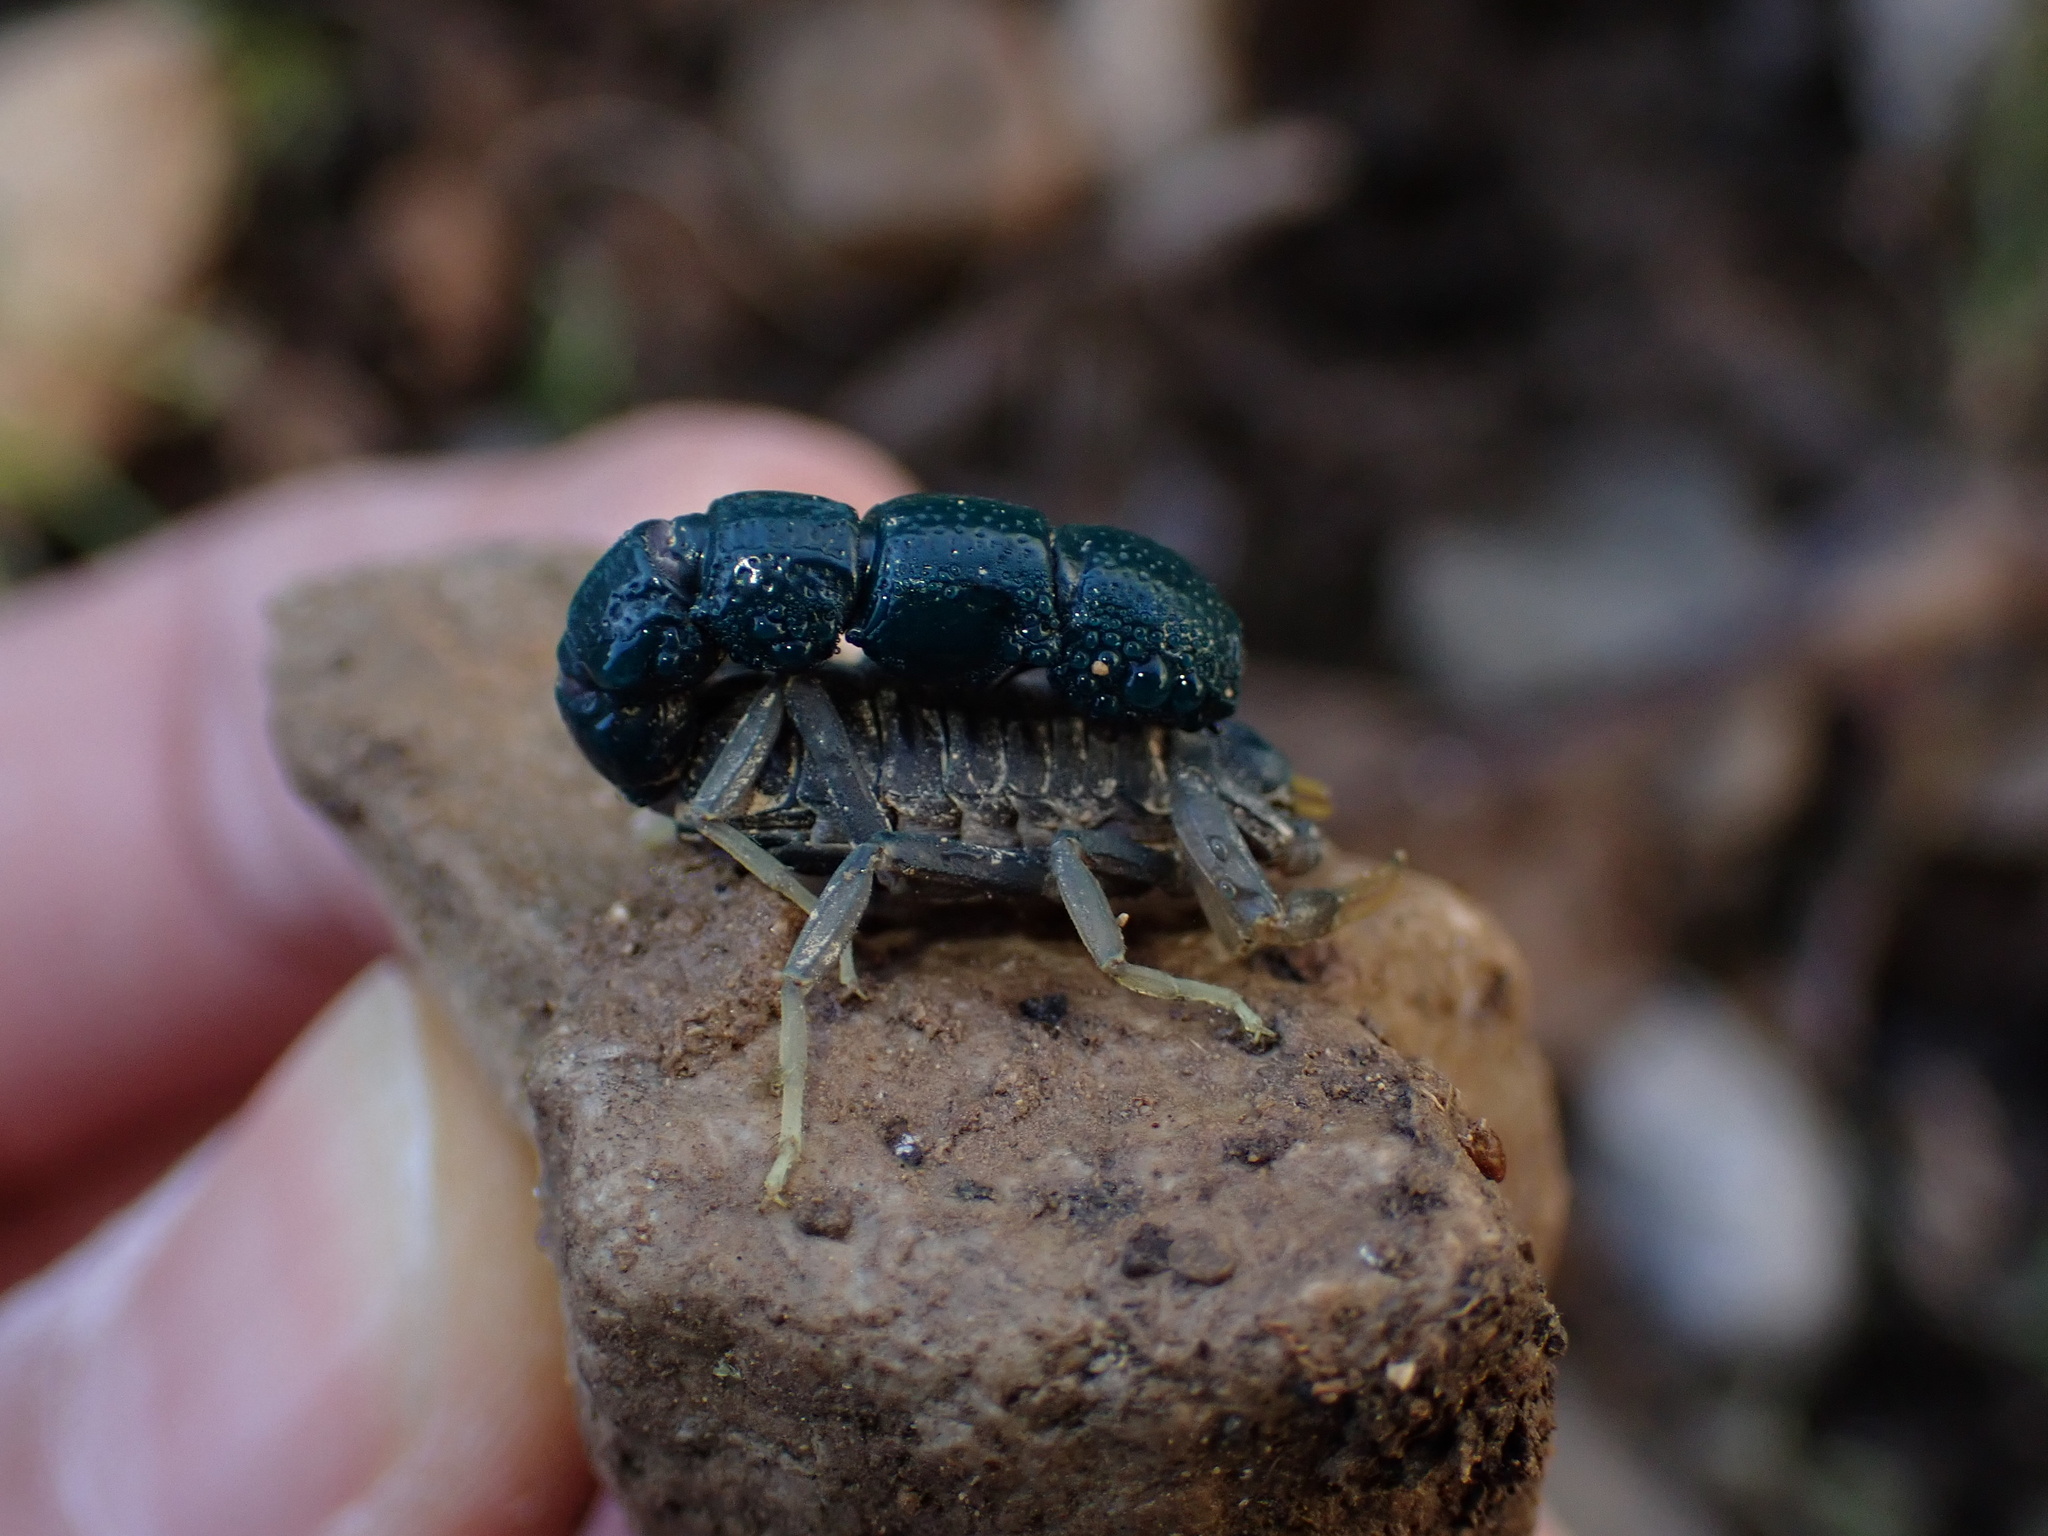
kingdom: Animalia
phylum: Arthropoda
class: Arachnida
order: Scorpiones
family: Buthidae
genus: Orthochirus
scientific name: Orthochirus farzanpayi
